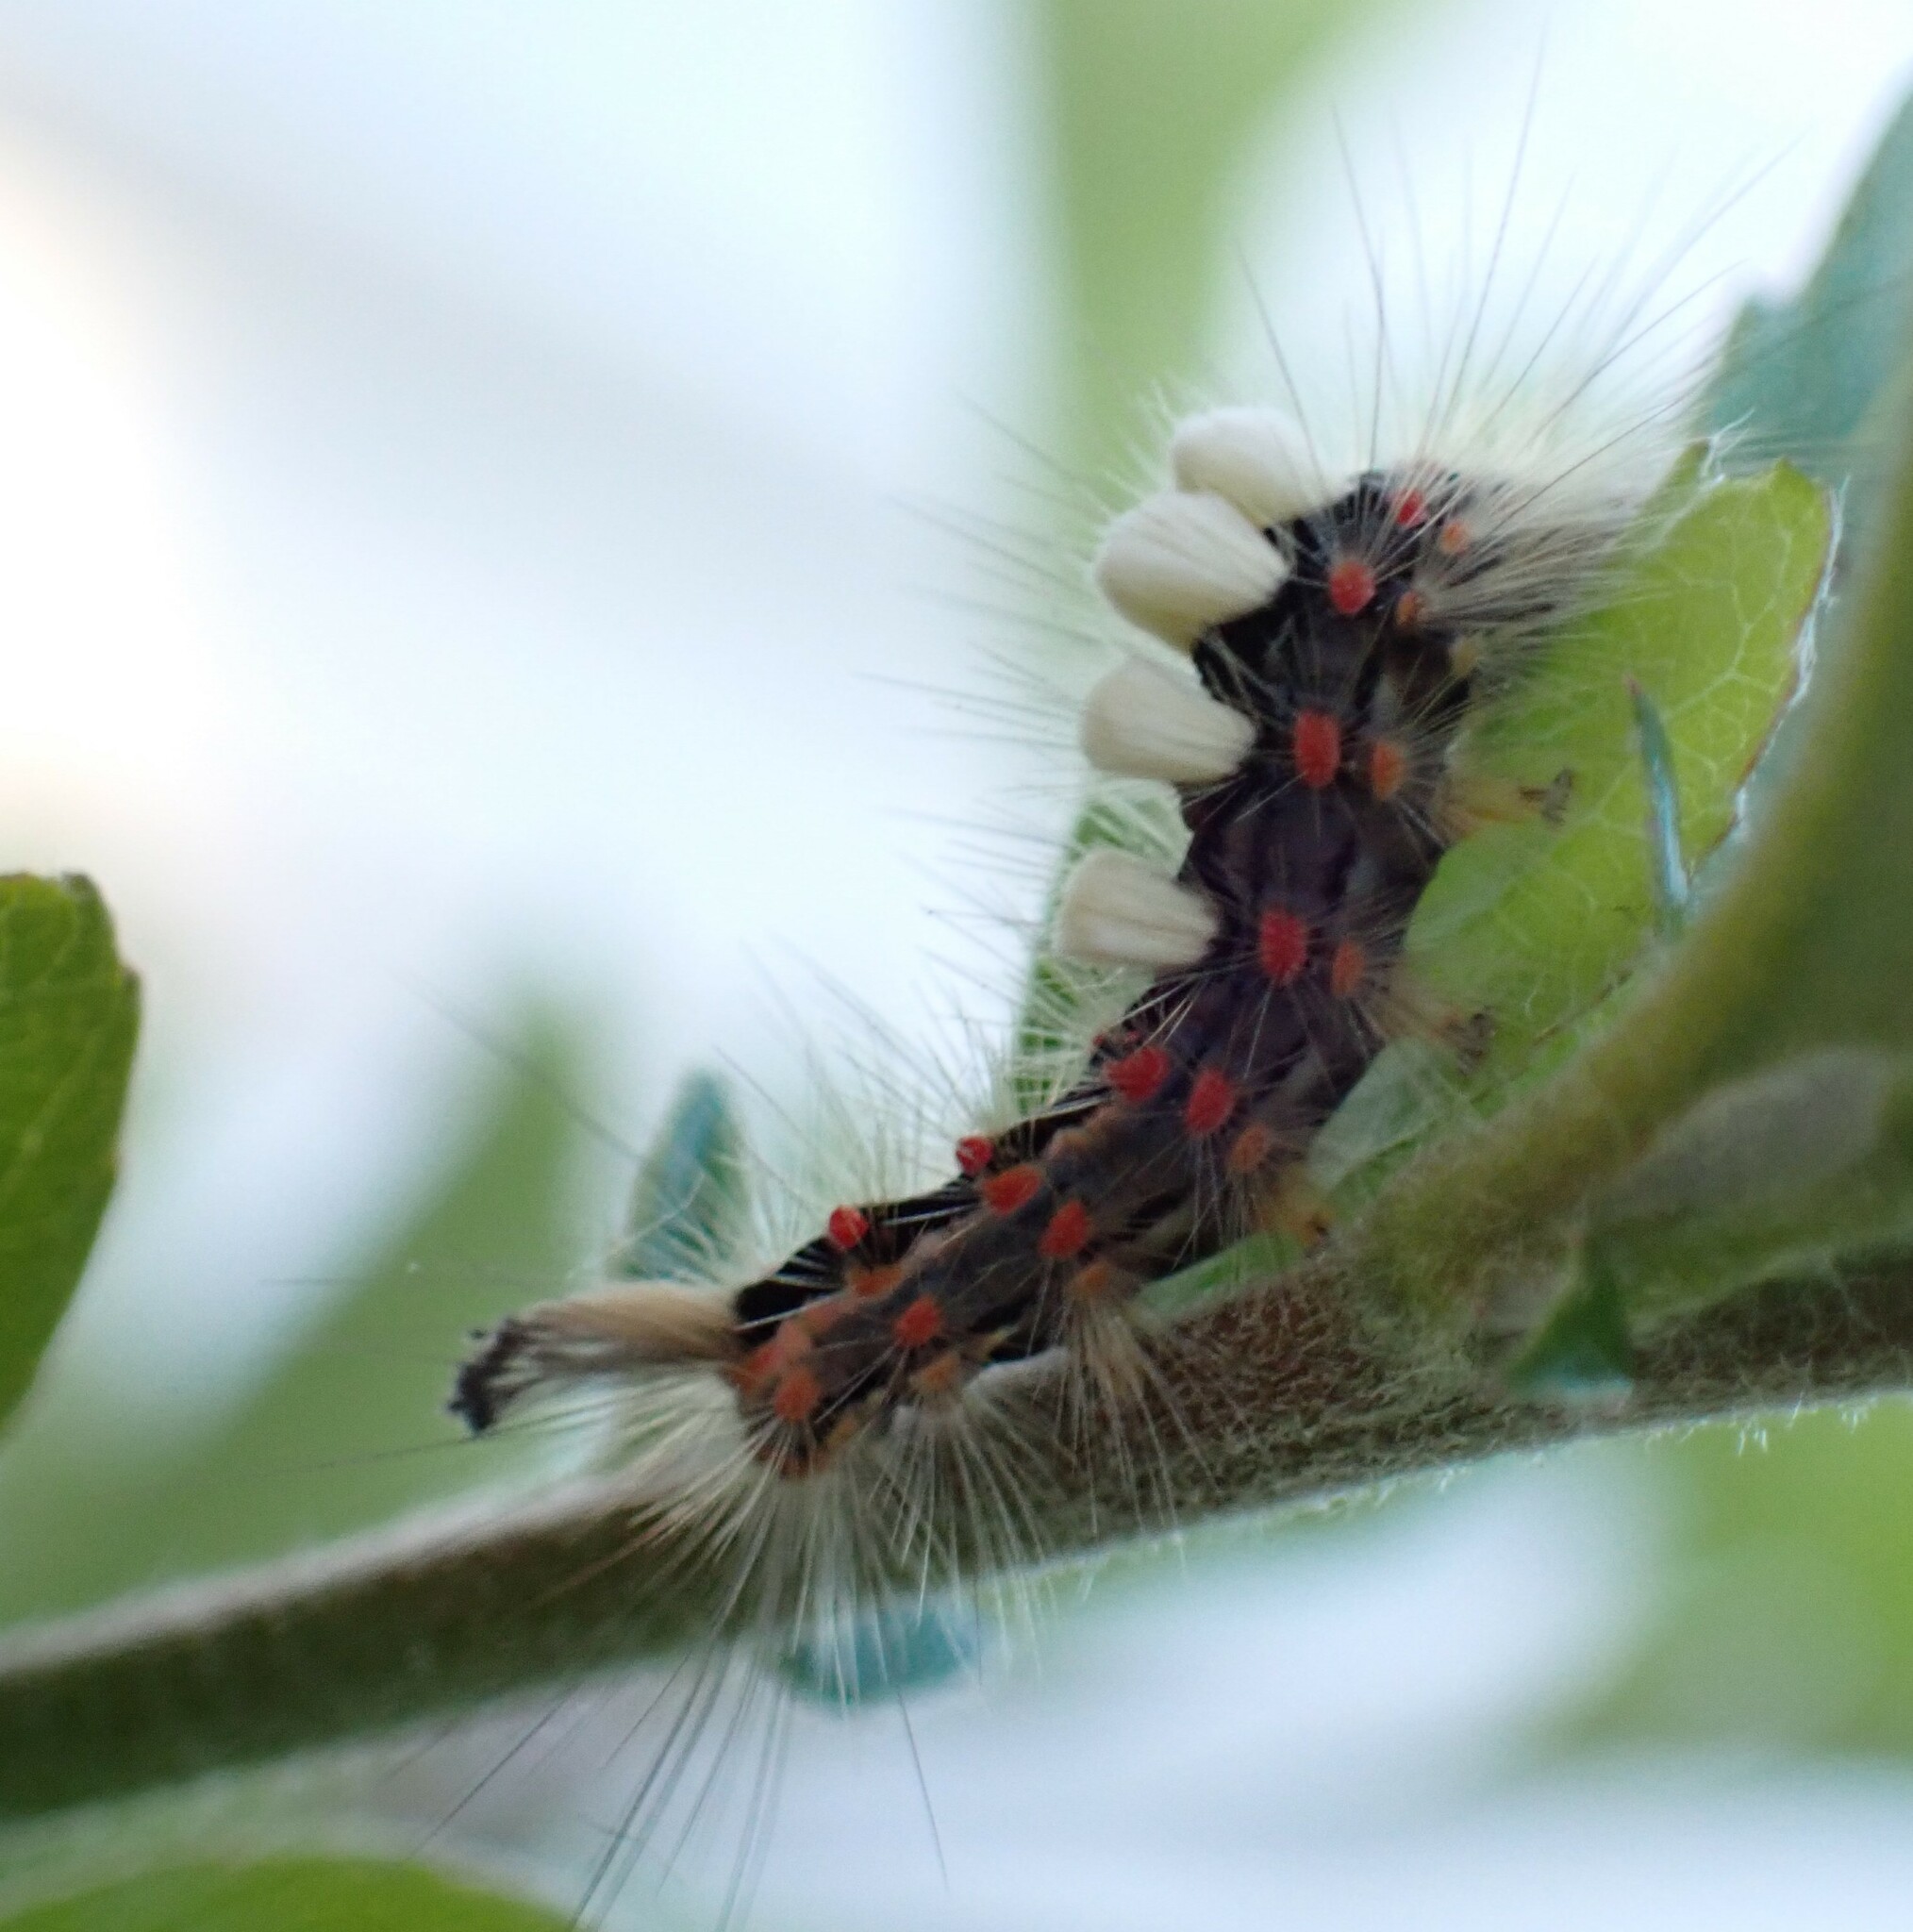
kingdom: Animalia
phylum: Arthropoda
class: Insecta
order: Lepidoptera
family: Erebidae
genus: Orgyia
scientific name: Orgyia antiqua
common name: Vapourer
